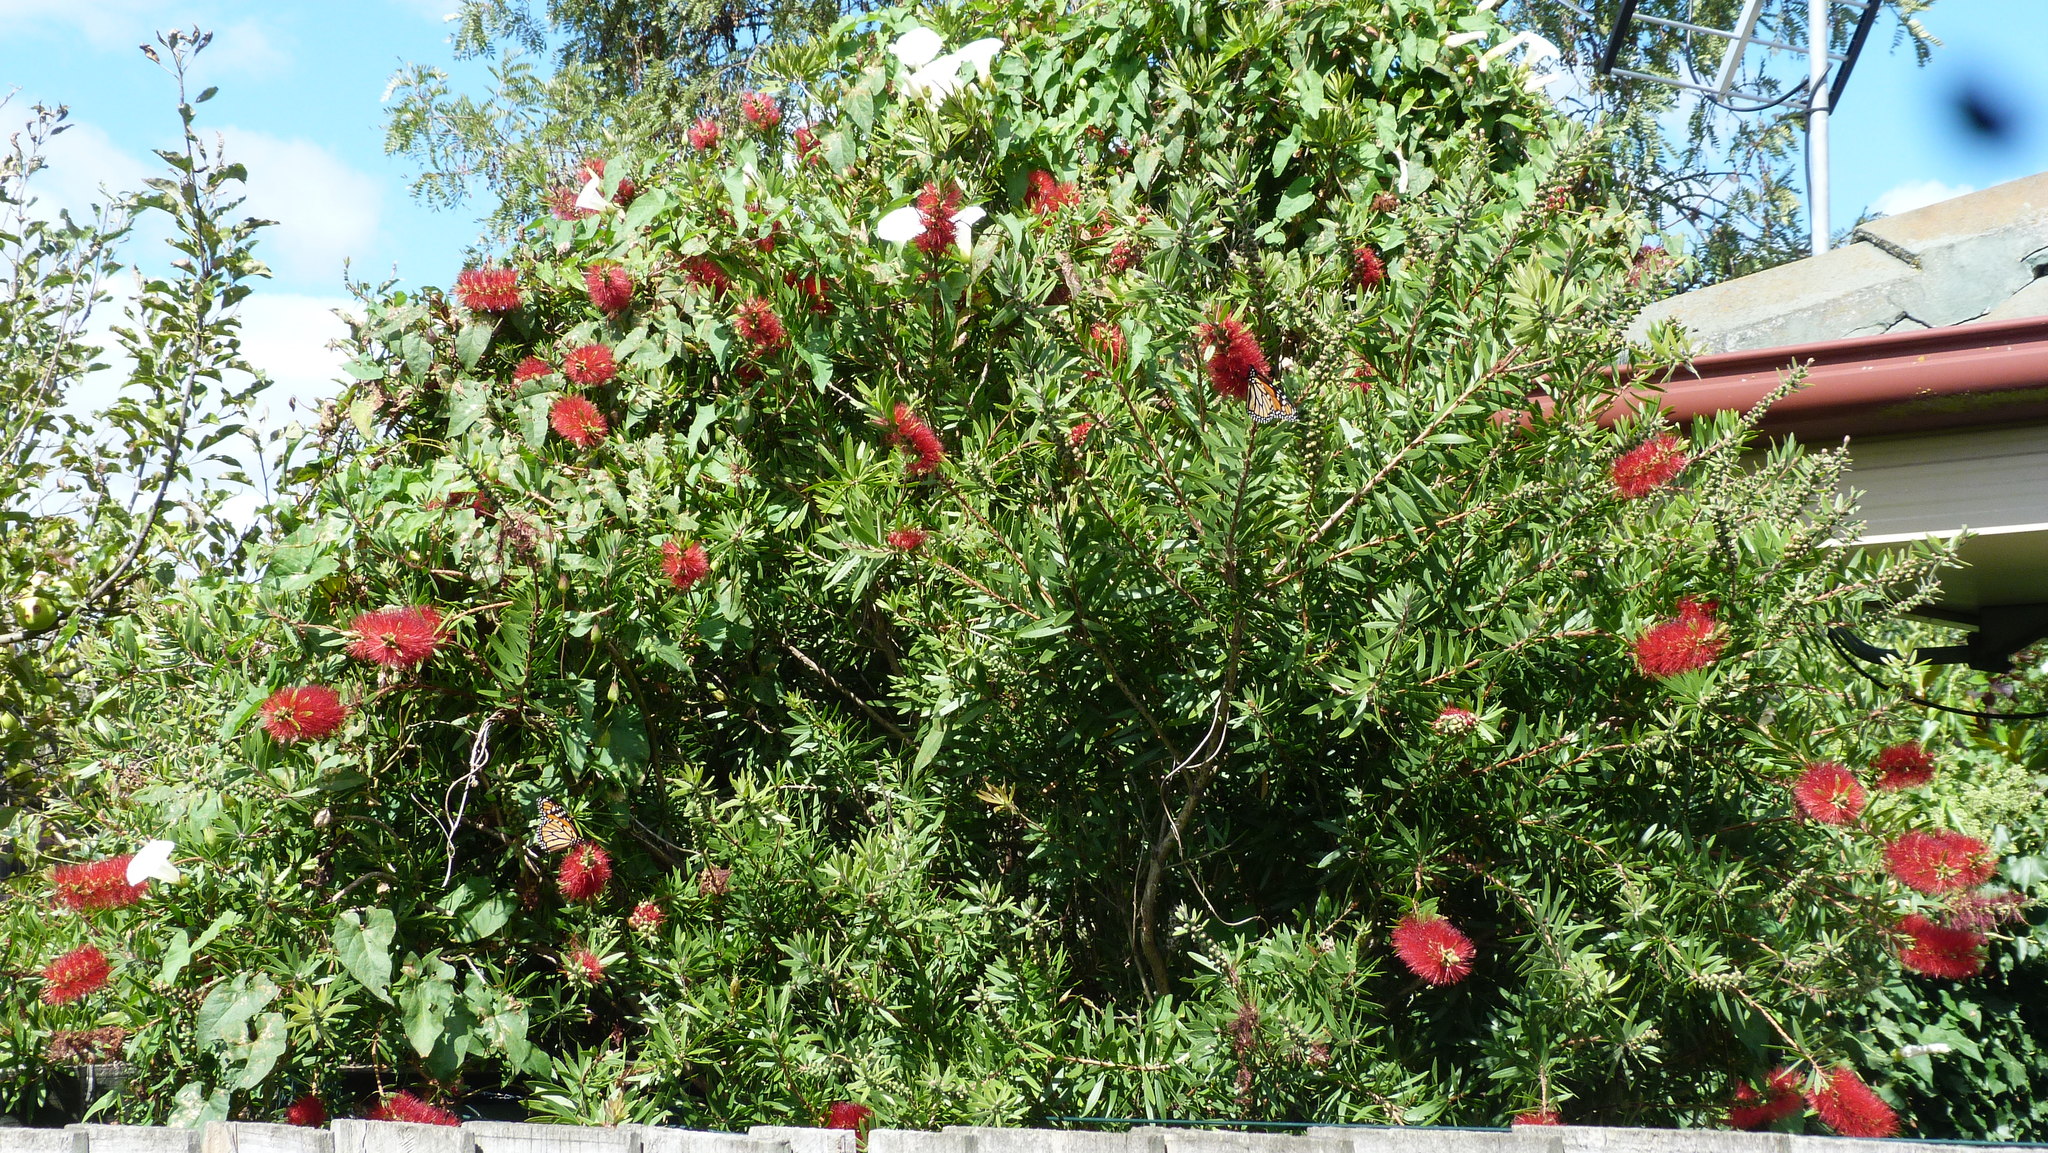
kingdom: Animalia
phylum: Arthropoda
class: Insecta
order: Lepidoptera
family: Nymphalidae
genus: Danaus
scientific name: Danaus plexippus
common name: Monarch
